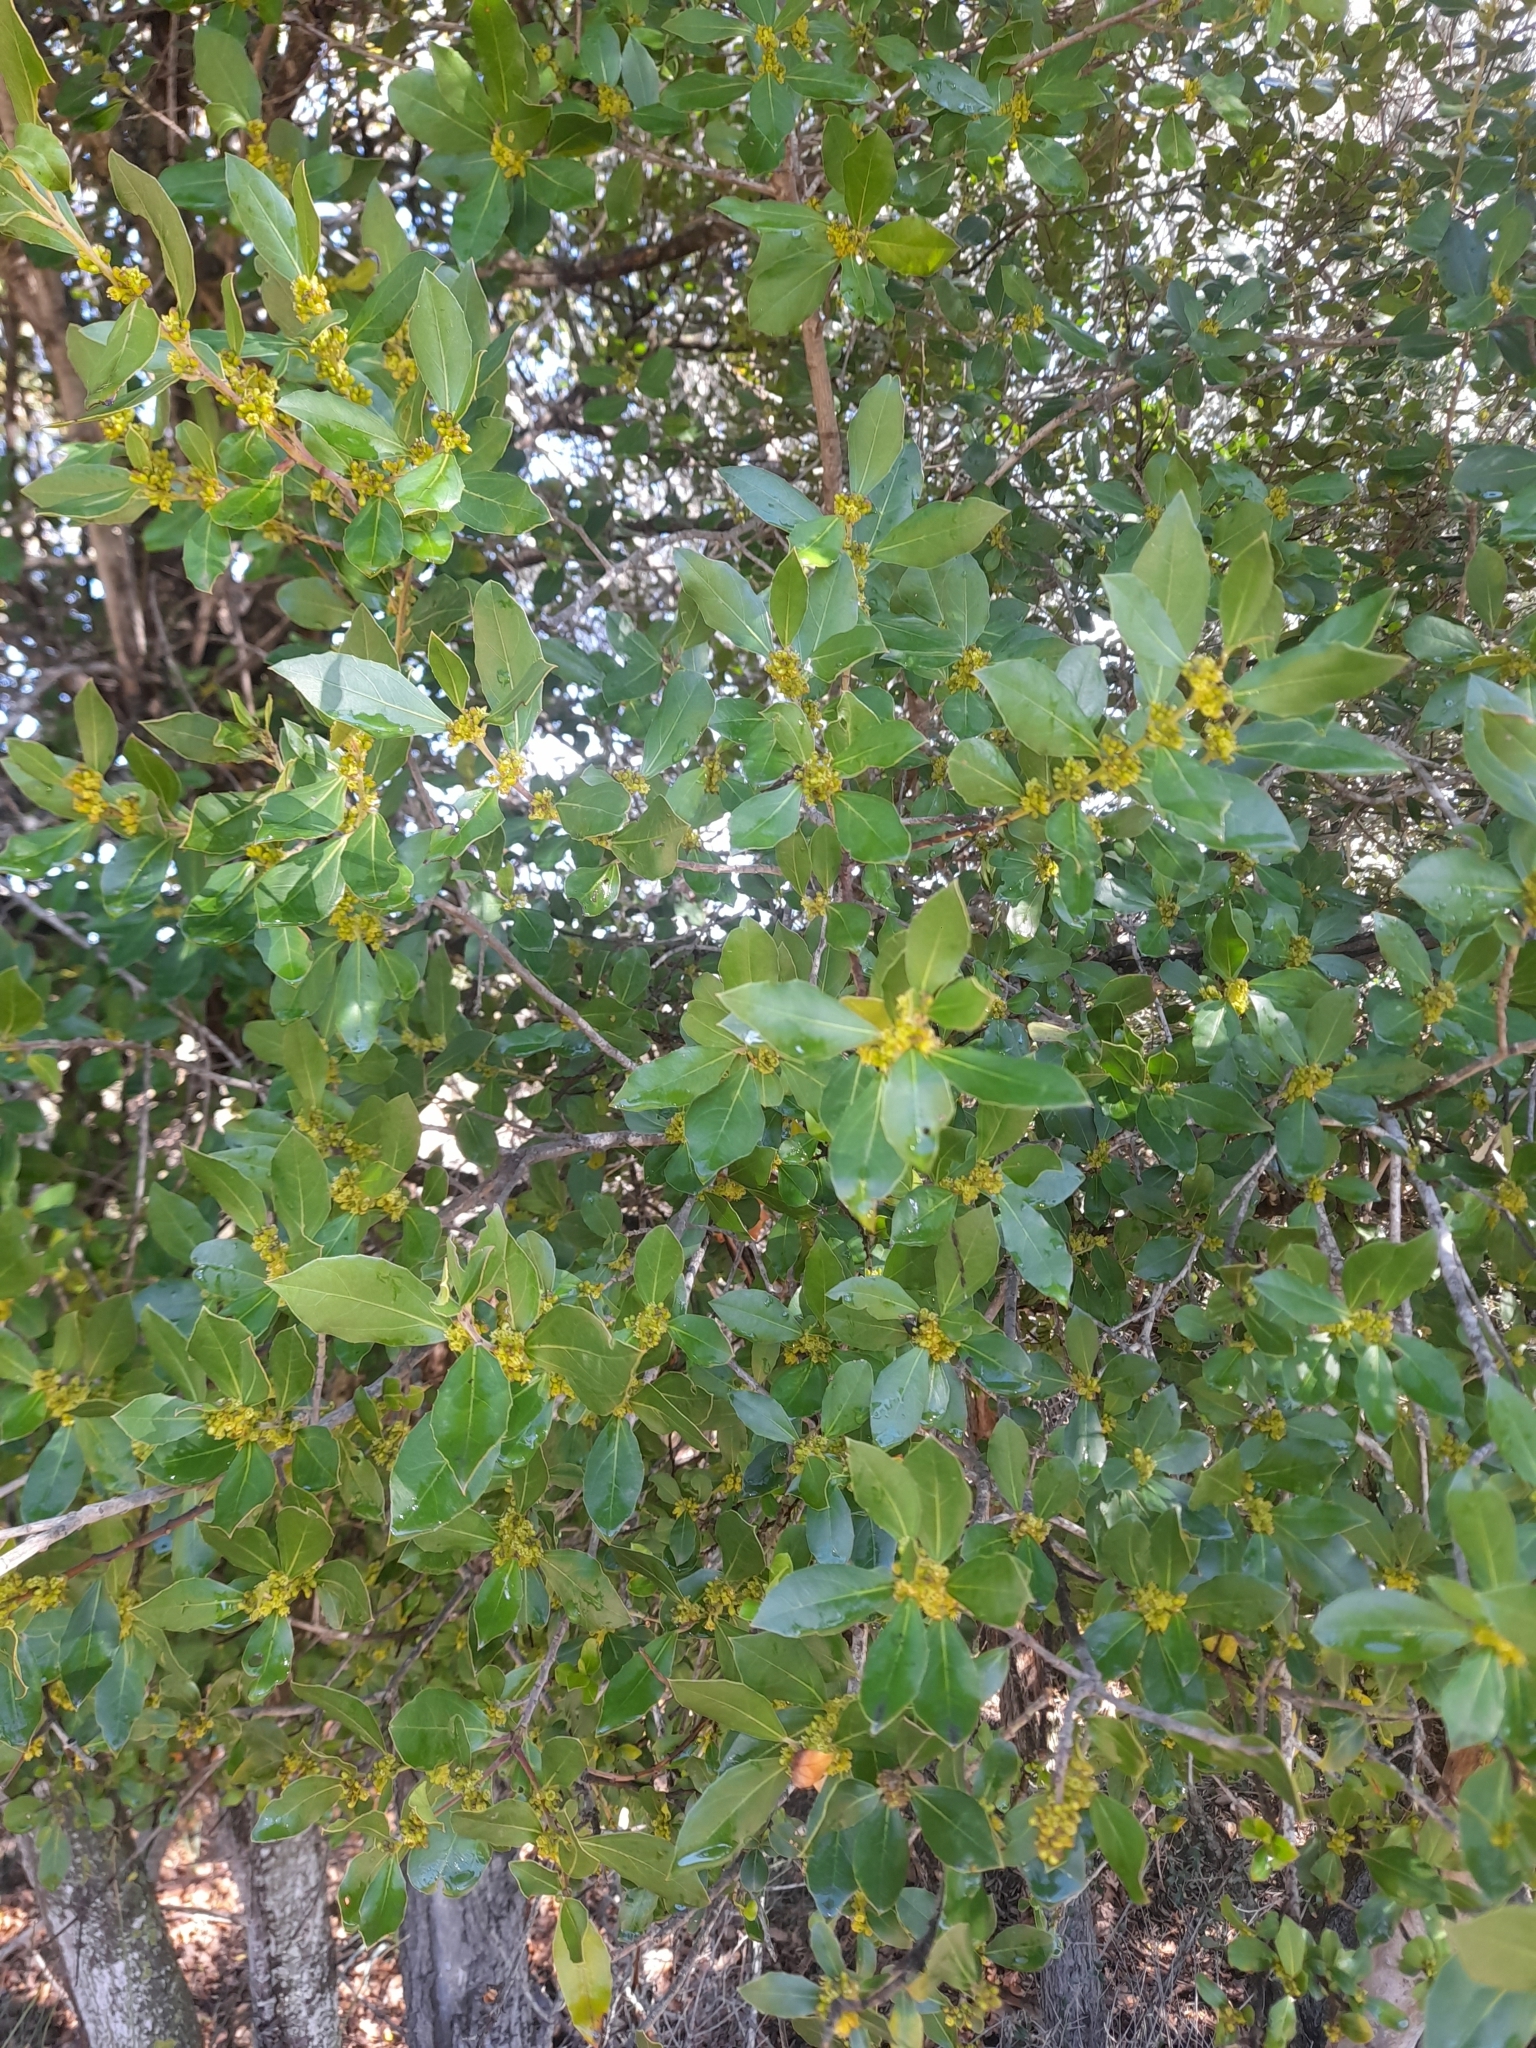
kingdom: Plantae
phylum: Tracheophyta
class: Magnoliopsida
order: Rosales
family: Rhamnaceae
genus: Rhamnus
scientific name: Rhamnus alaternus
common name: Mediterranean buckthorn
